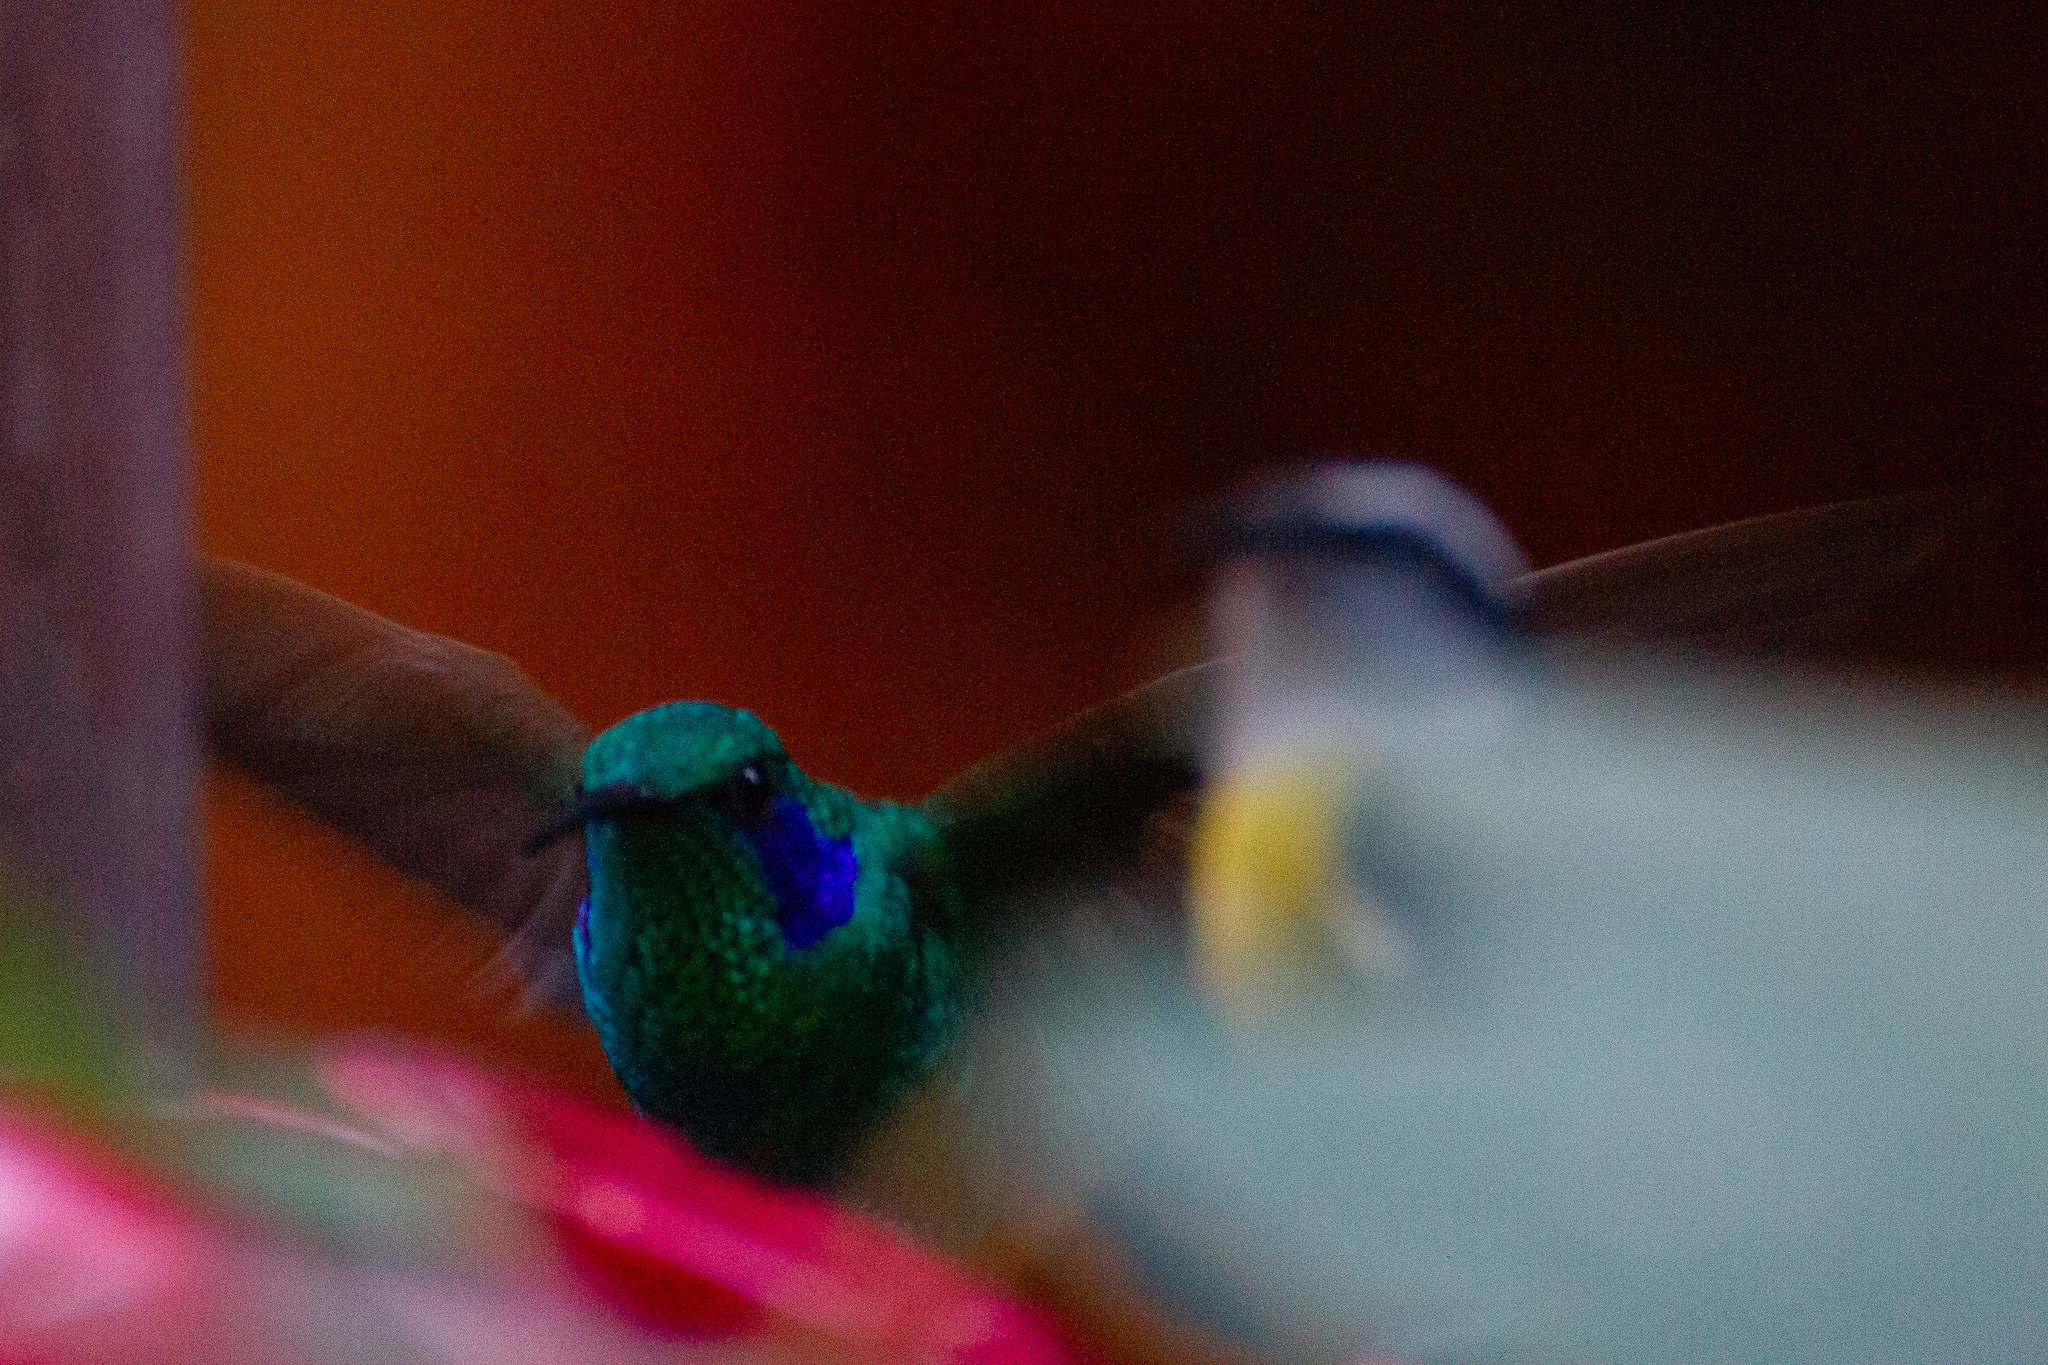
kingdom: Animalia
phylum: Chordata
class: Aves
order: Apodiformes
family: Trochilidae
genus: Colibri
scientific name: Colibri cyanotus
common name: Lesser violetear
